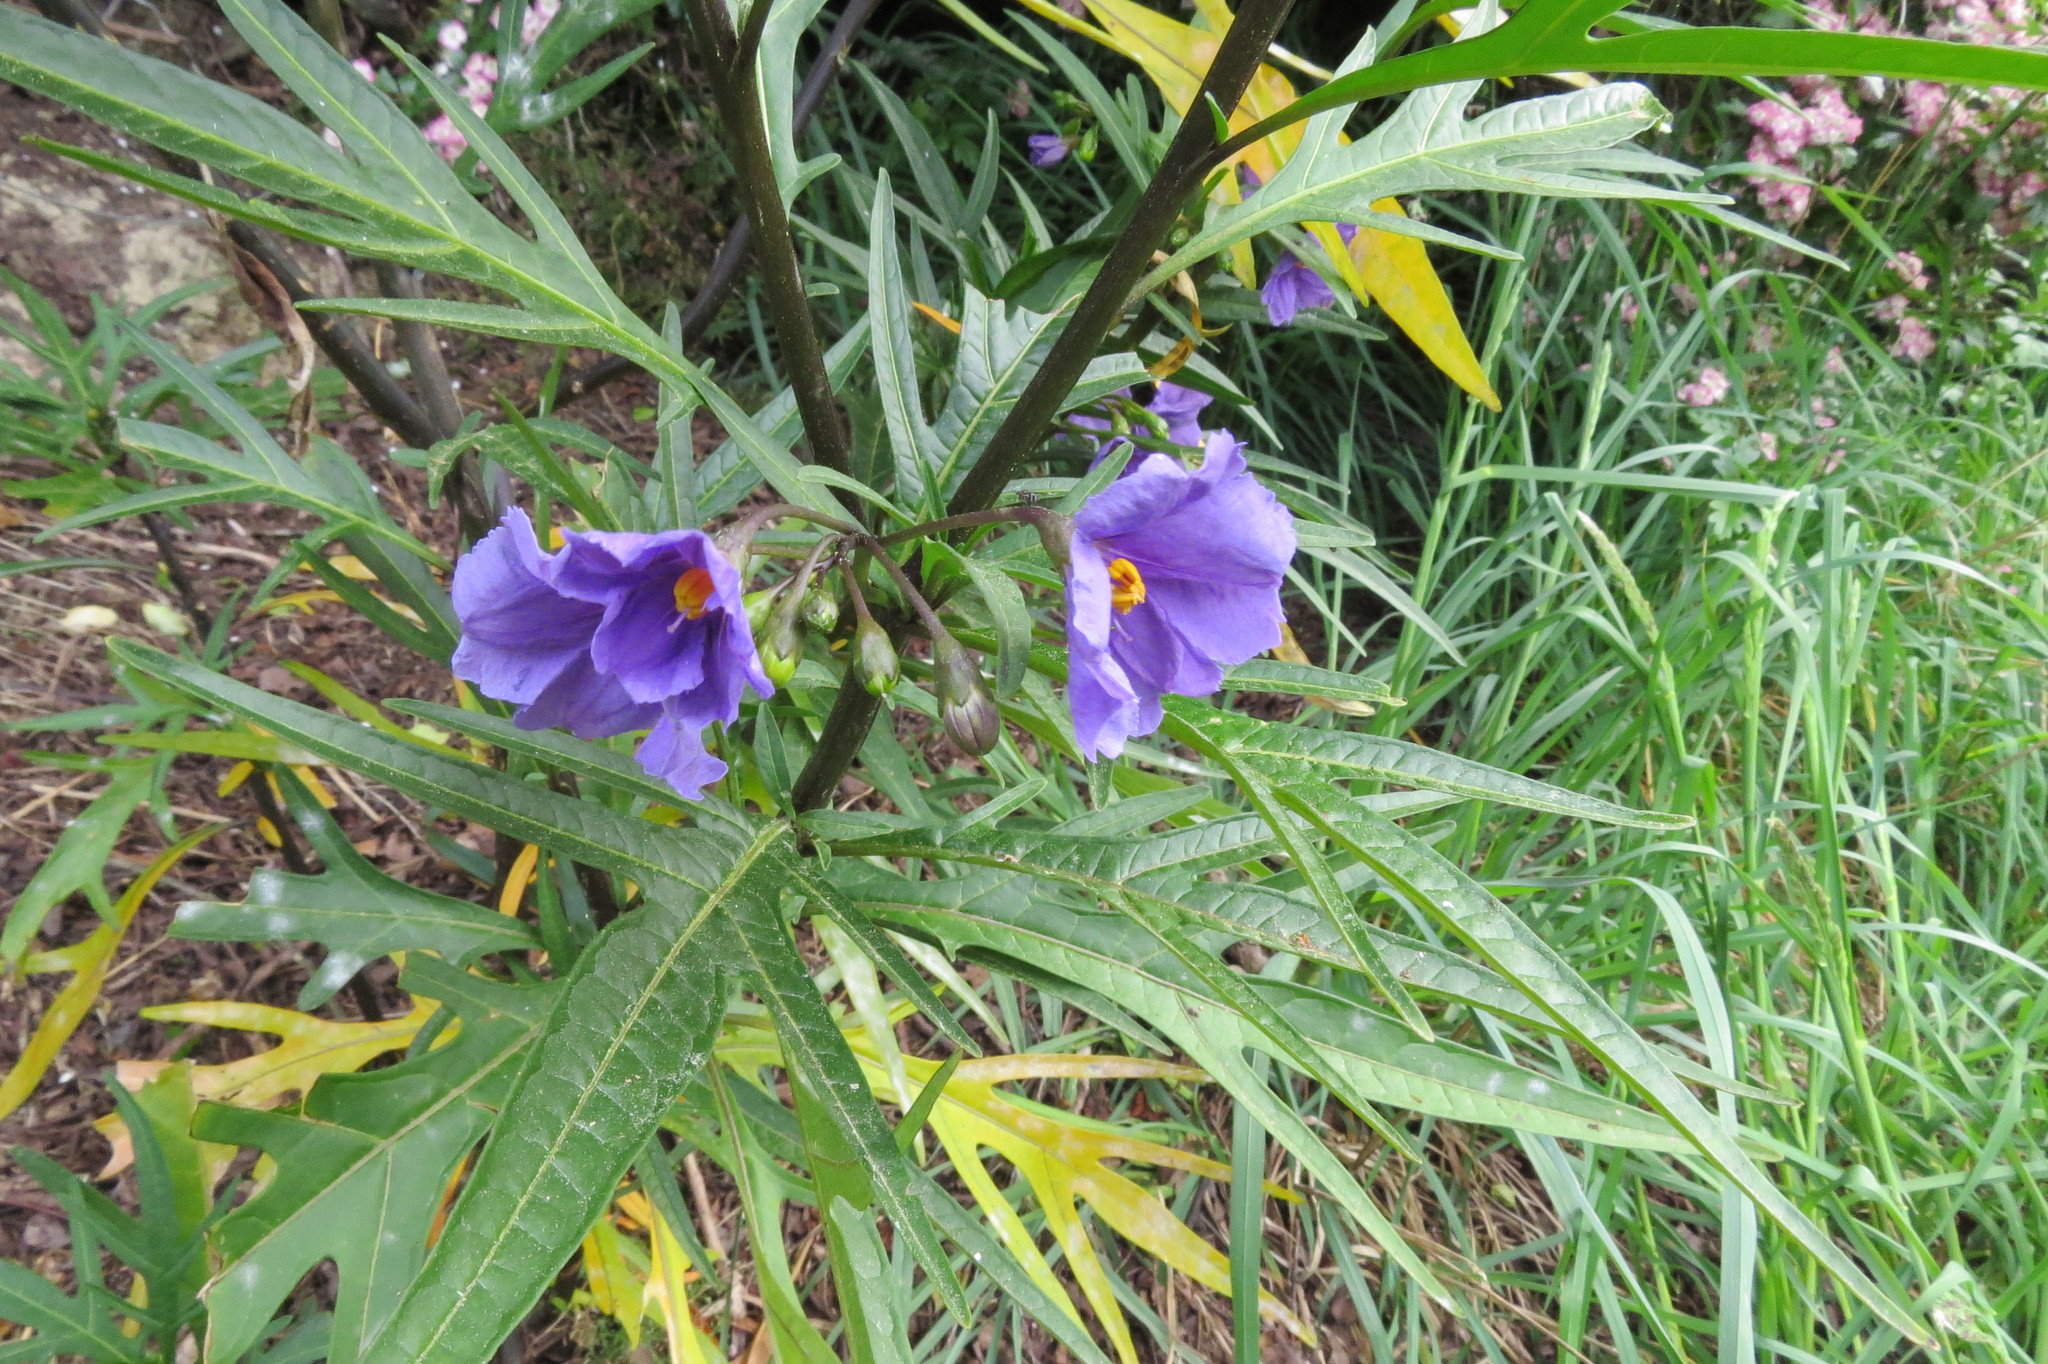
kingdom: Plantae
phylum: Tracheophyta
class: Magnoliopsida
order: Solanales
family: Solanaceae
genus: Solanum
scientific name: Solanum laciniatum
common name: Kangaroo-apple
